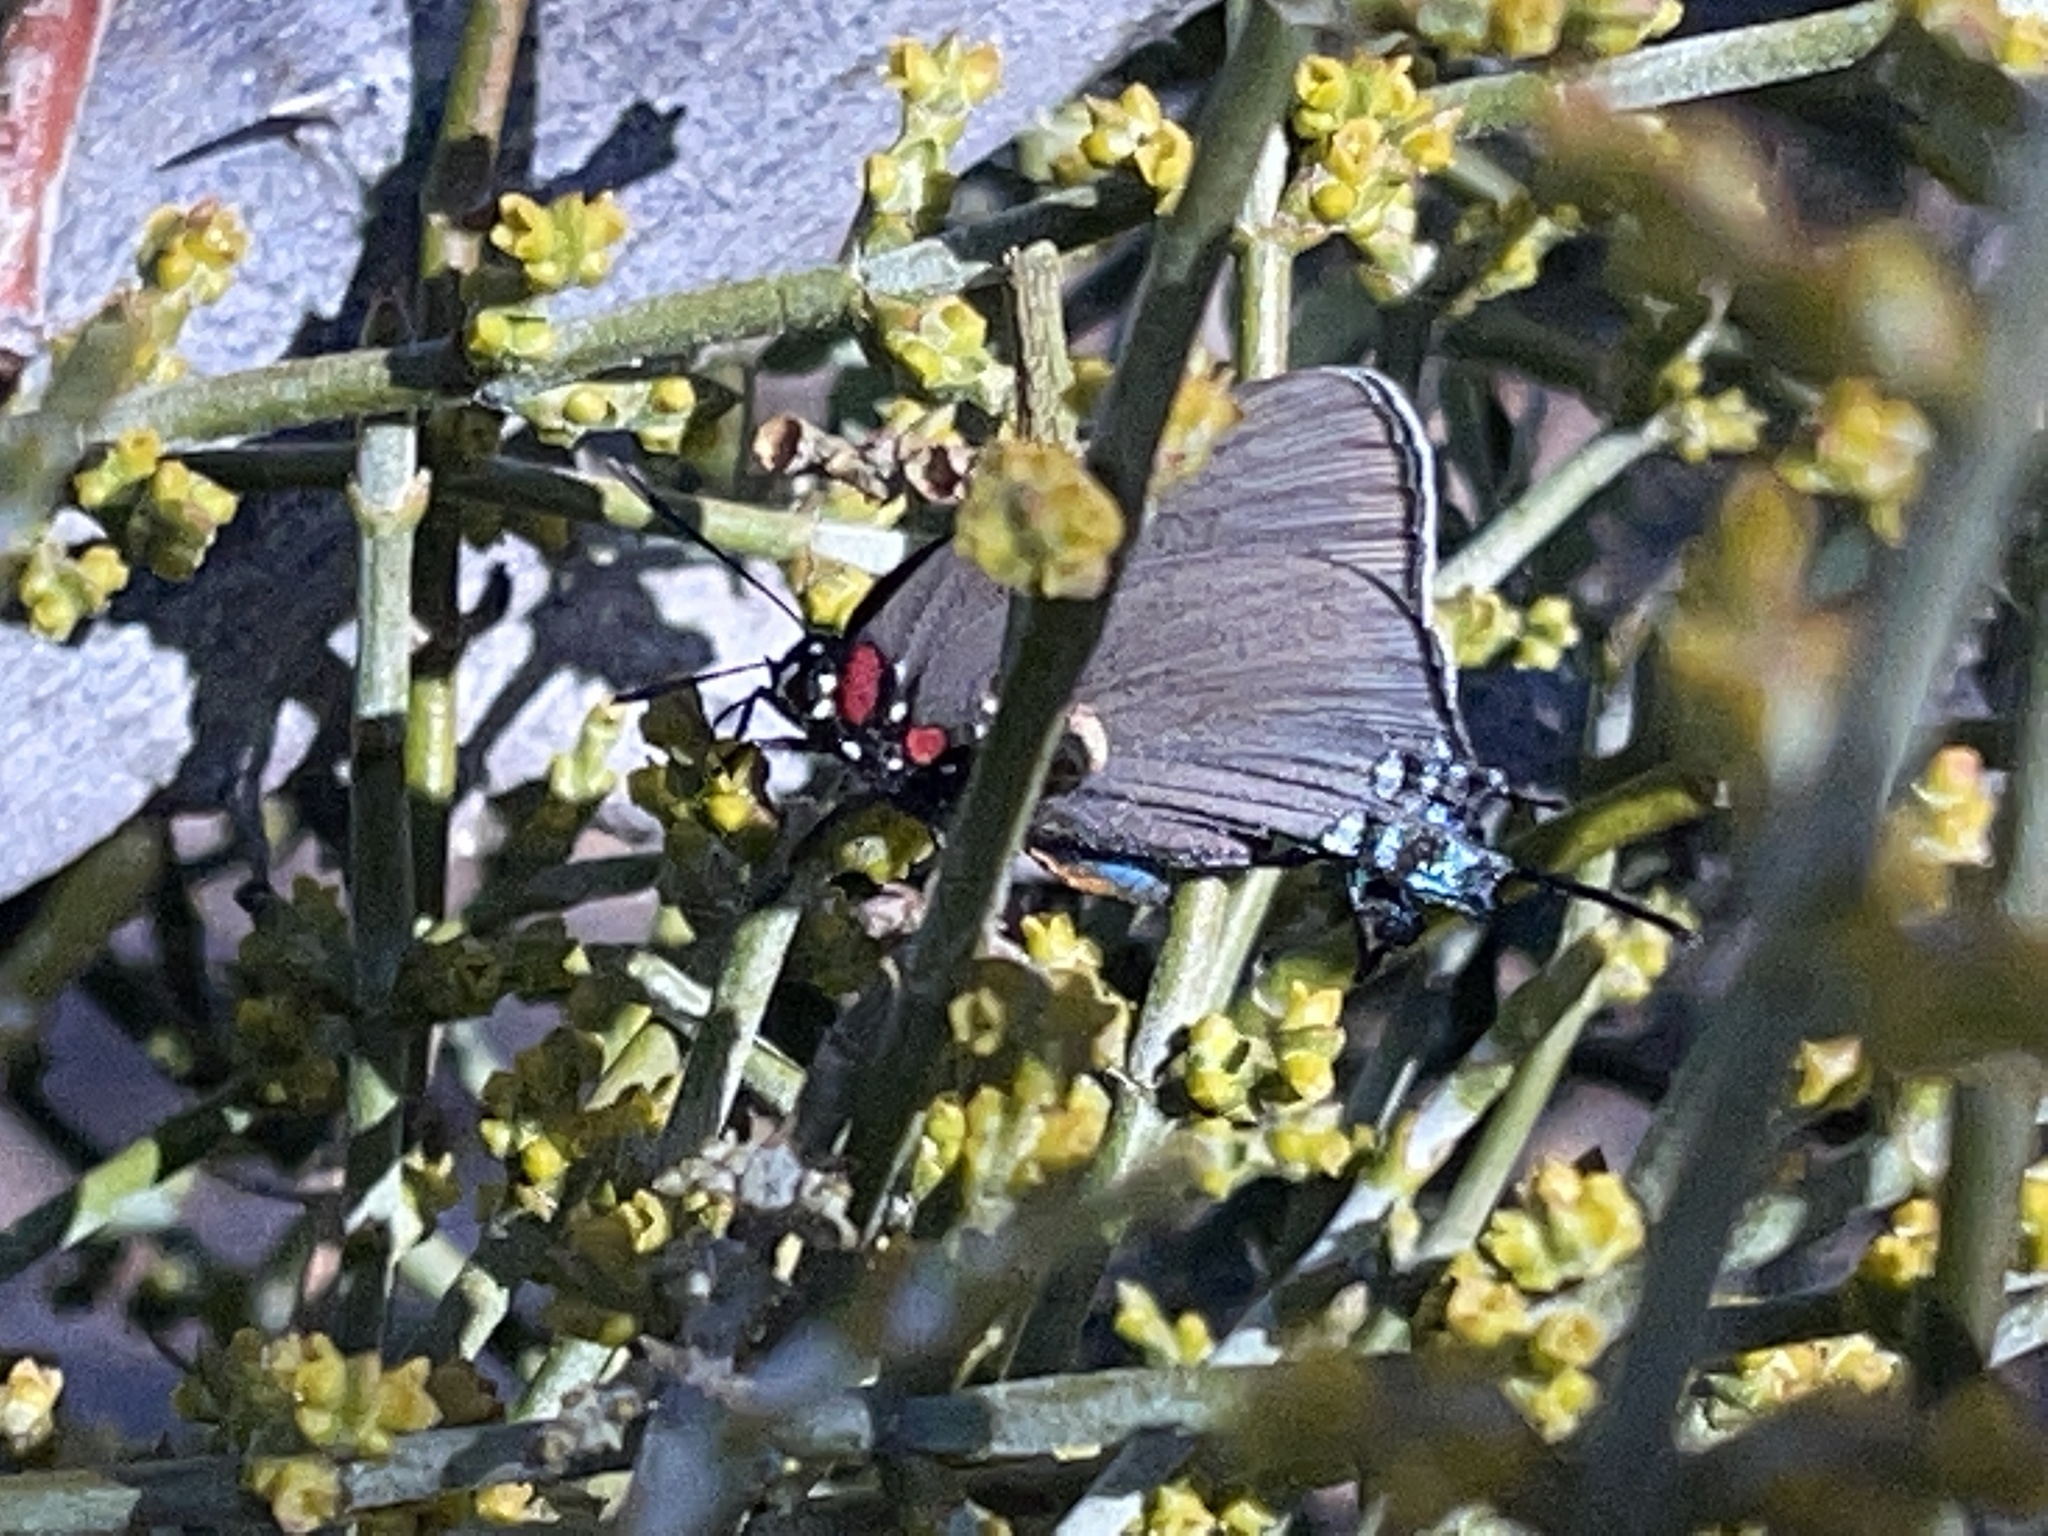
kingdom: Animalia
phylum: Arthropoda
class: Insecta
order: Lepidoptera
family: Lycaenidae
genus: Atlides
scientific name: Atlides halesus
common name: Great purple hairstreak
